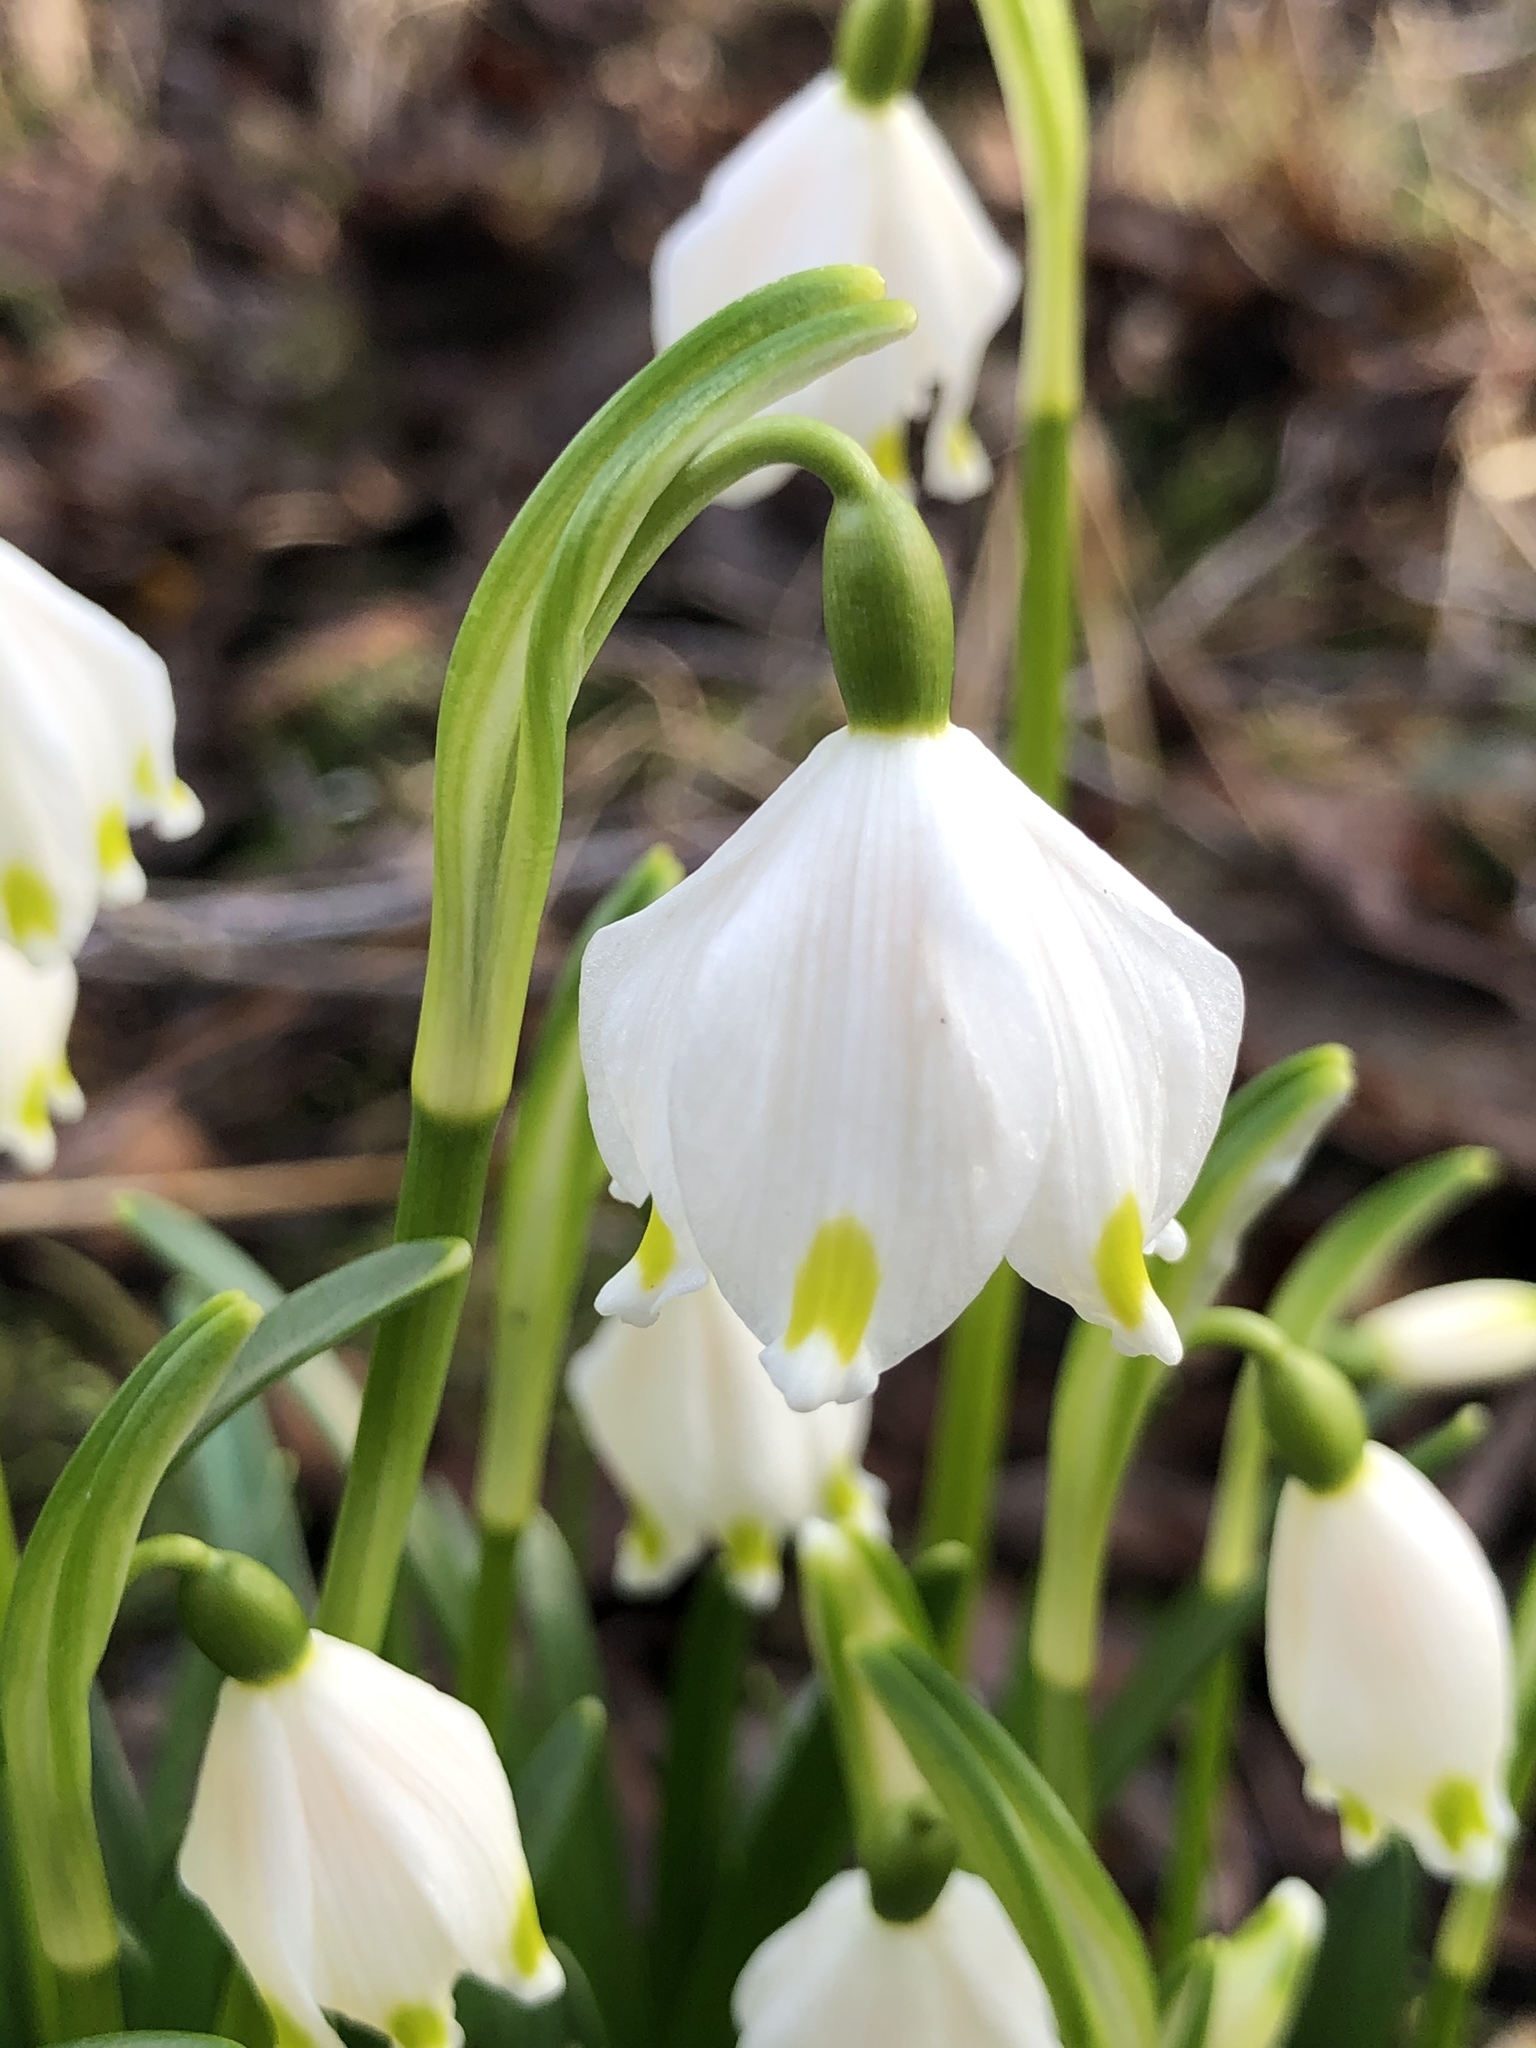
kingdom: Plantae
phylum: Tracheophyta
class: Liliopsida
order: Asparagales
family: Amaryllidaceae
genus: Leucojum
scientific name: Leucojum vernum
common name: Spring snowflake
